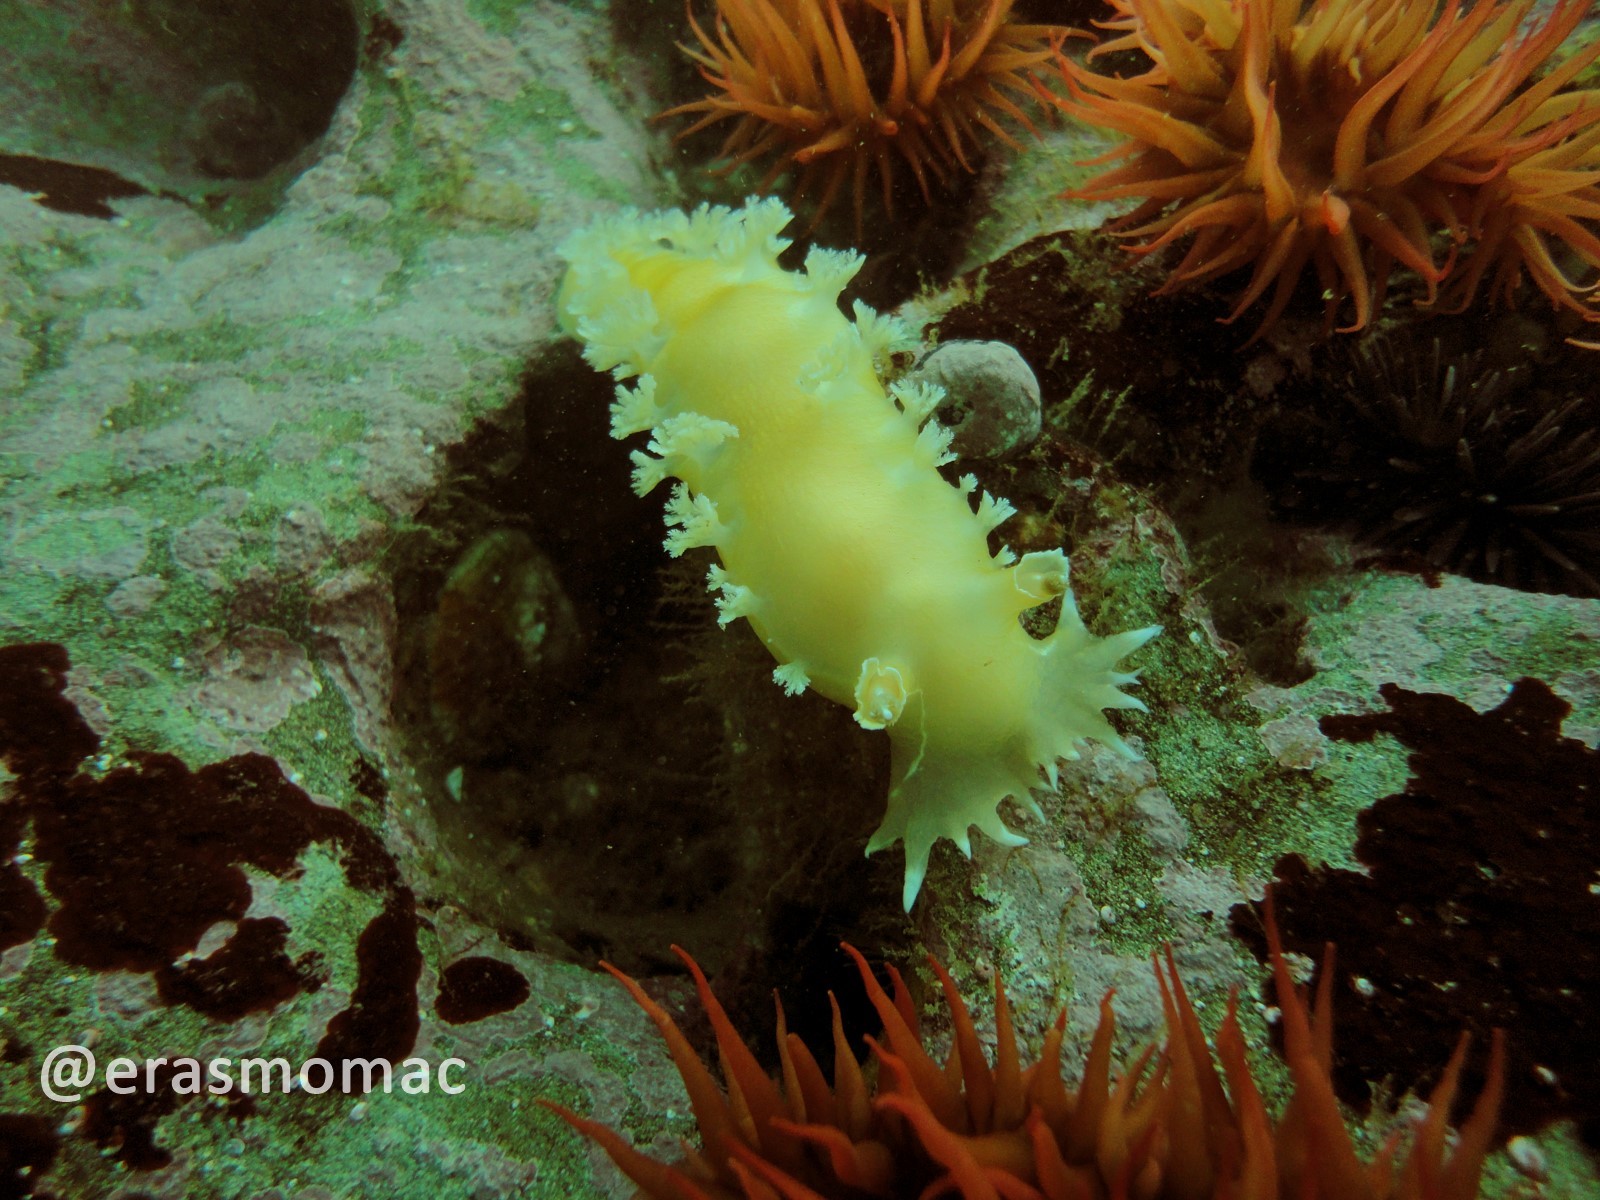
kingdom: Animalia
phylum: Mollusca
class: Gastropoda
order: Nudibranchia
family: Tritoniidae
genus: Tritonia
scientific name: Tritonia odhneri
